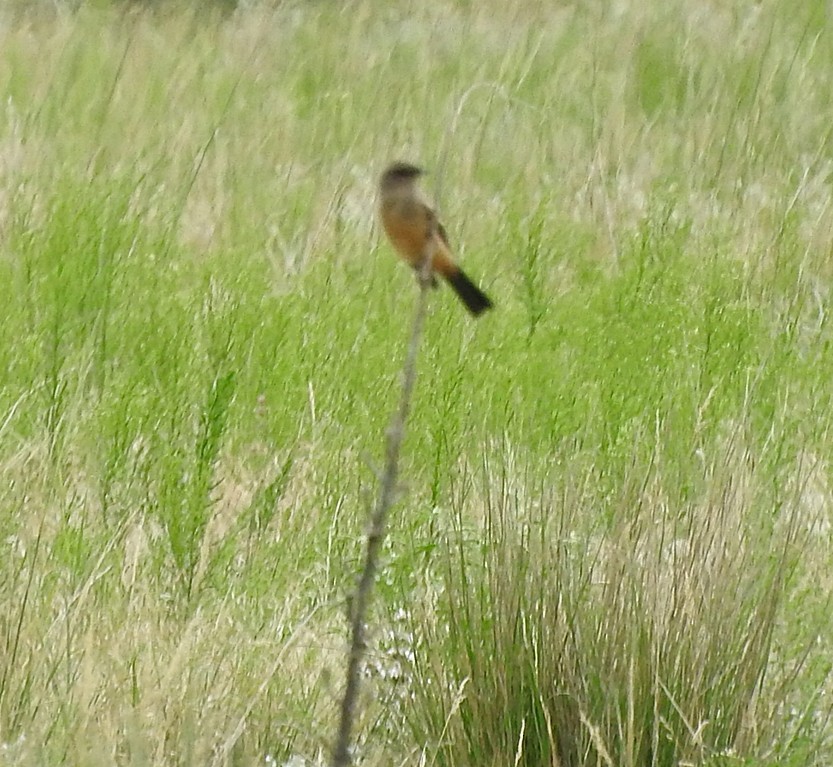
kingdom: Animalia
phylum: Chordata
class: Aves
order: Passeriformes
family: Tyrannidae
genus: Sayornis
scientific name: Sayornis saya
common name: Say's phoebe
